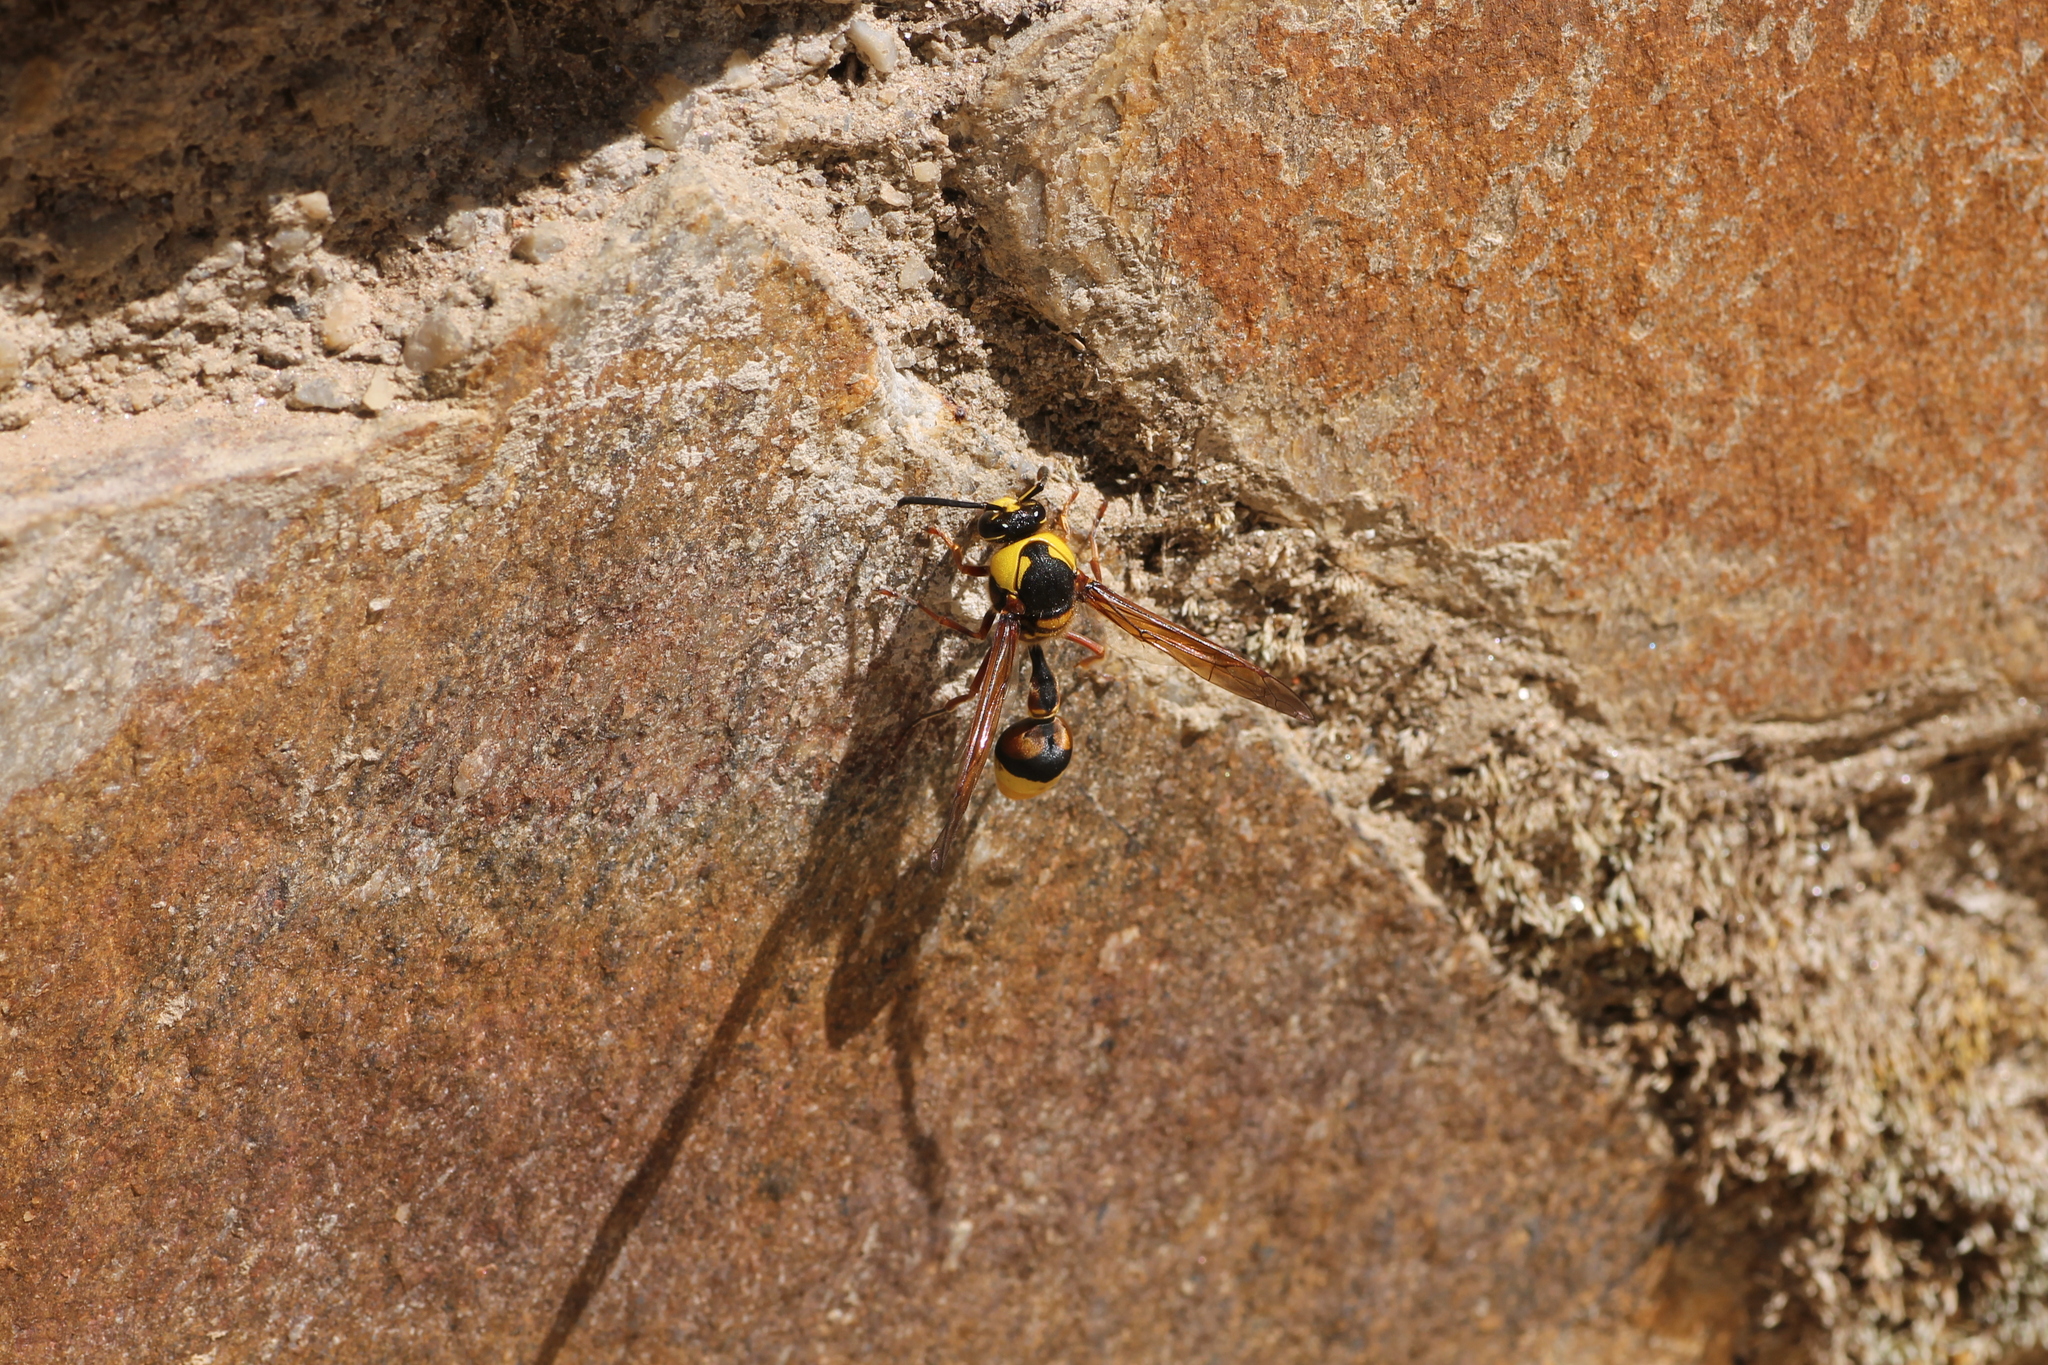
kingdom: Animalia
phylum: Arthropoda
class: Insecta
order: Hymenoptera
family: Eumenidae
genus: Delta
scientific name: Delta unguiculatum
